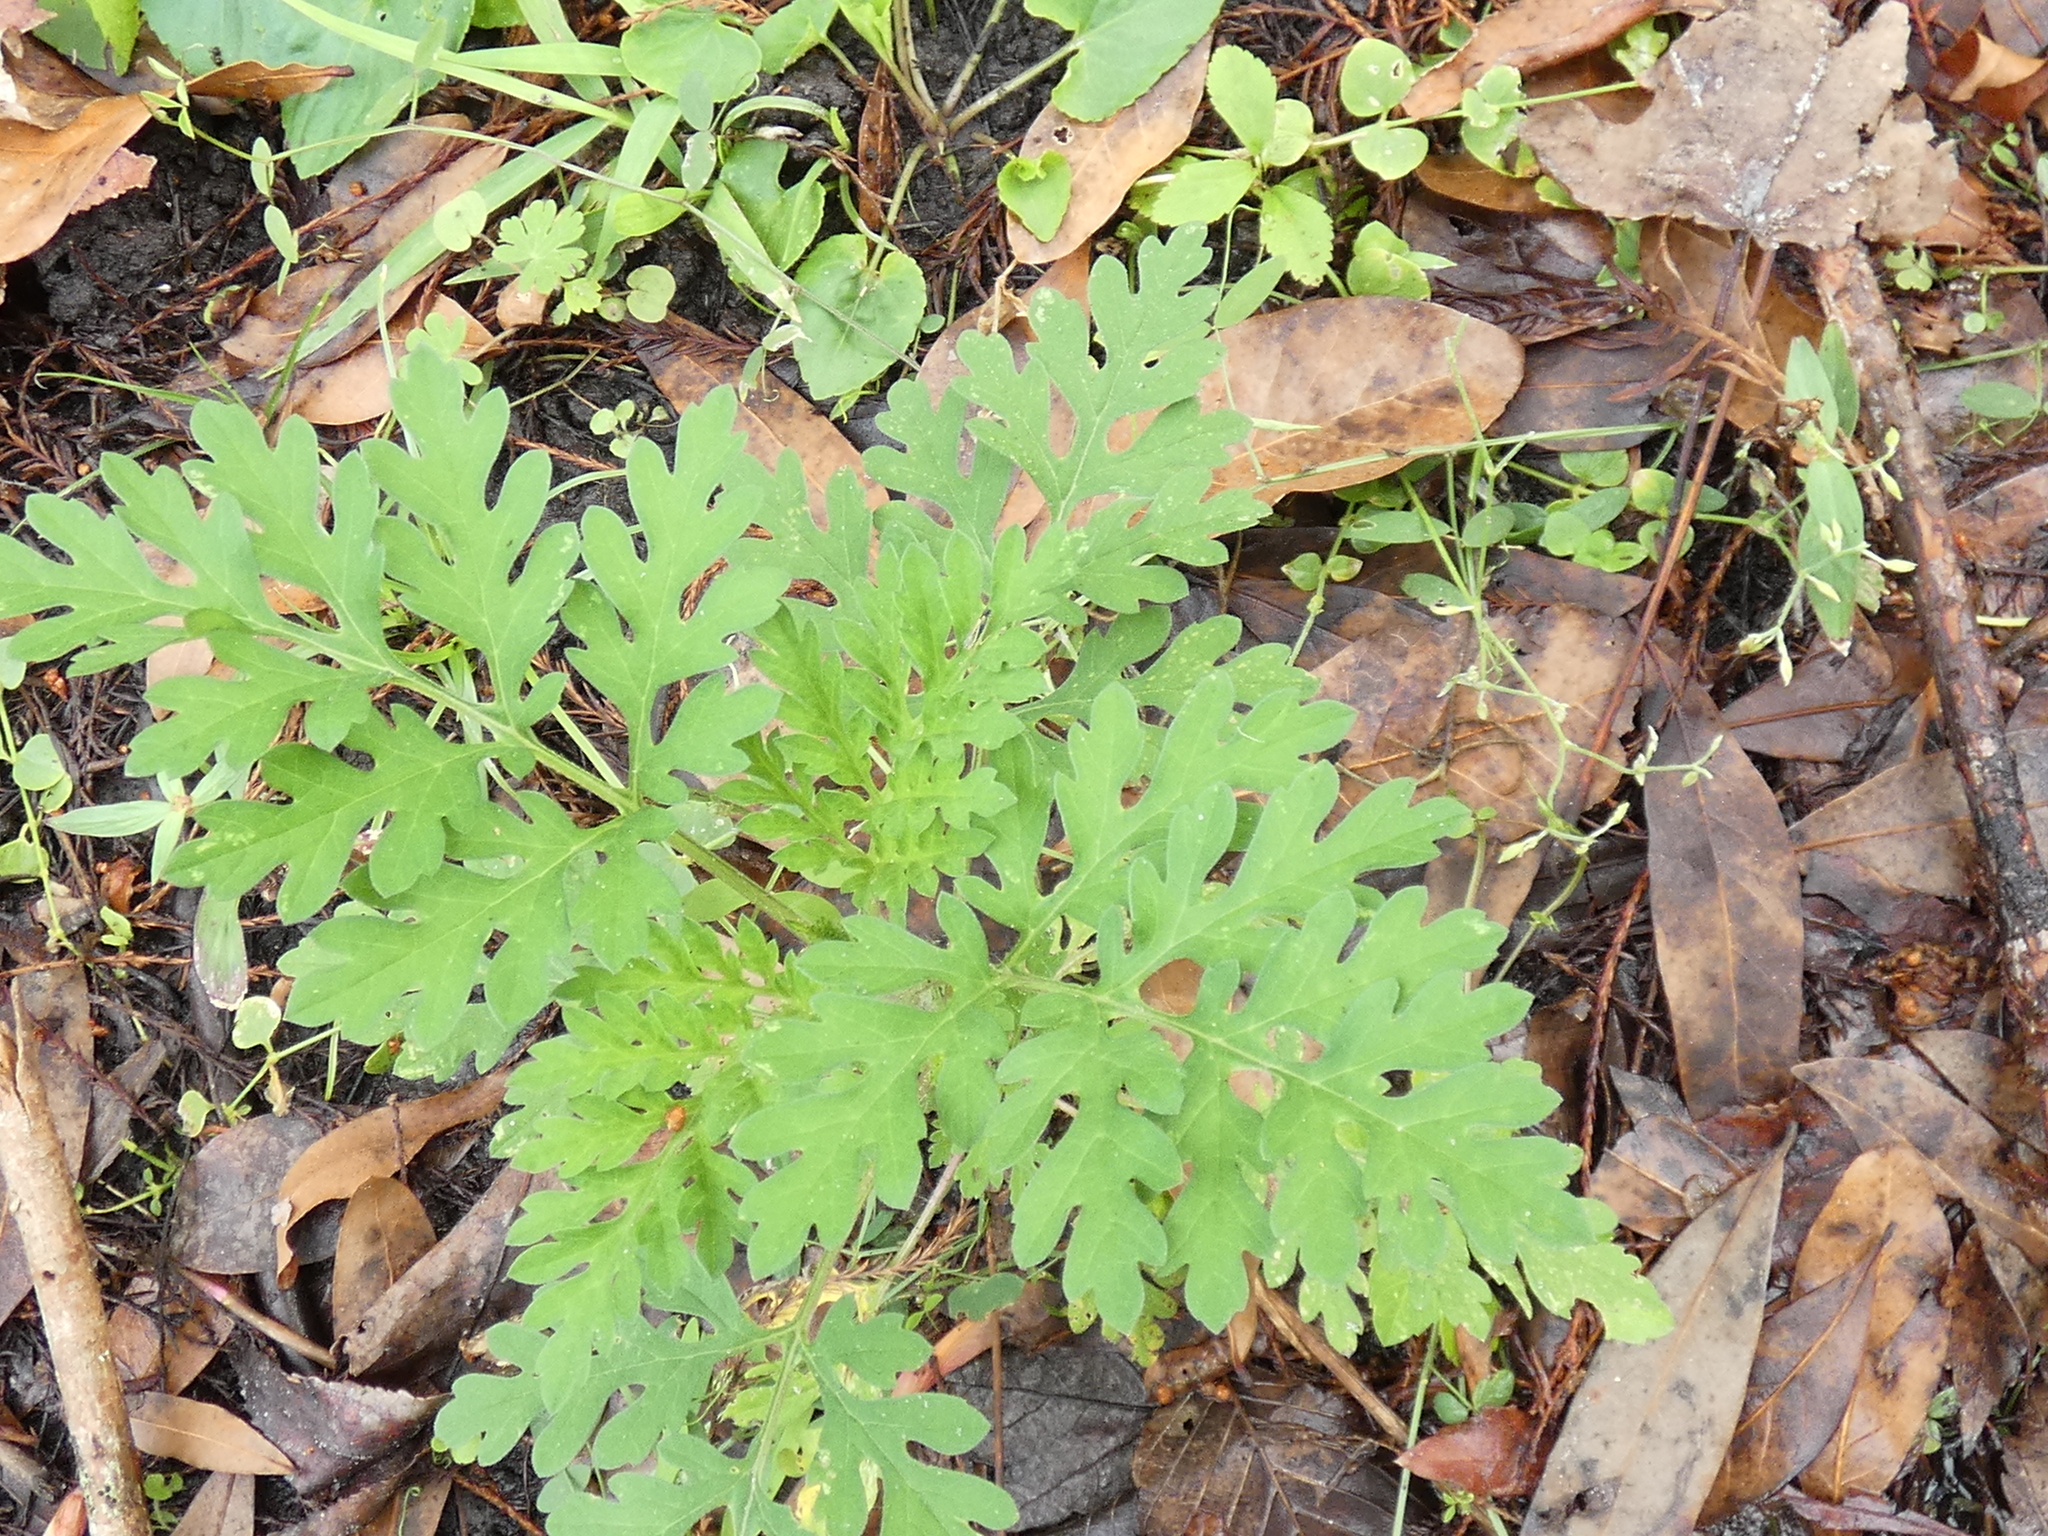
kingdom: Plantae
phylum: Tracheophyta
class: Magnoliopsida
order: Asterales
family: Asteraceae
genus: Ambrosia
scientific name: Ambrosia artemisiifolia
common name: Annual ragweed
